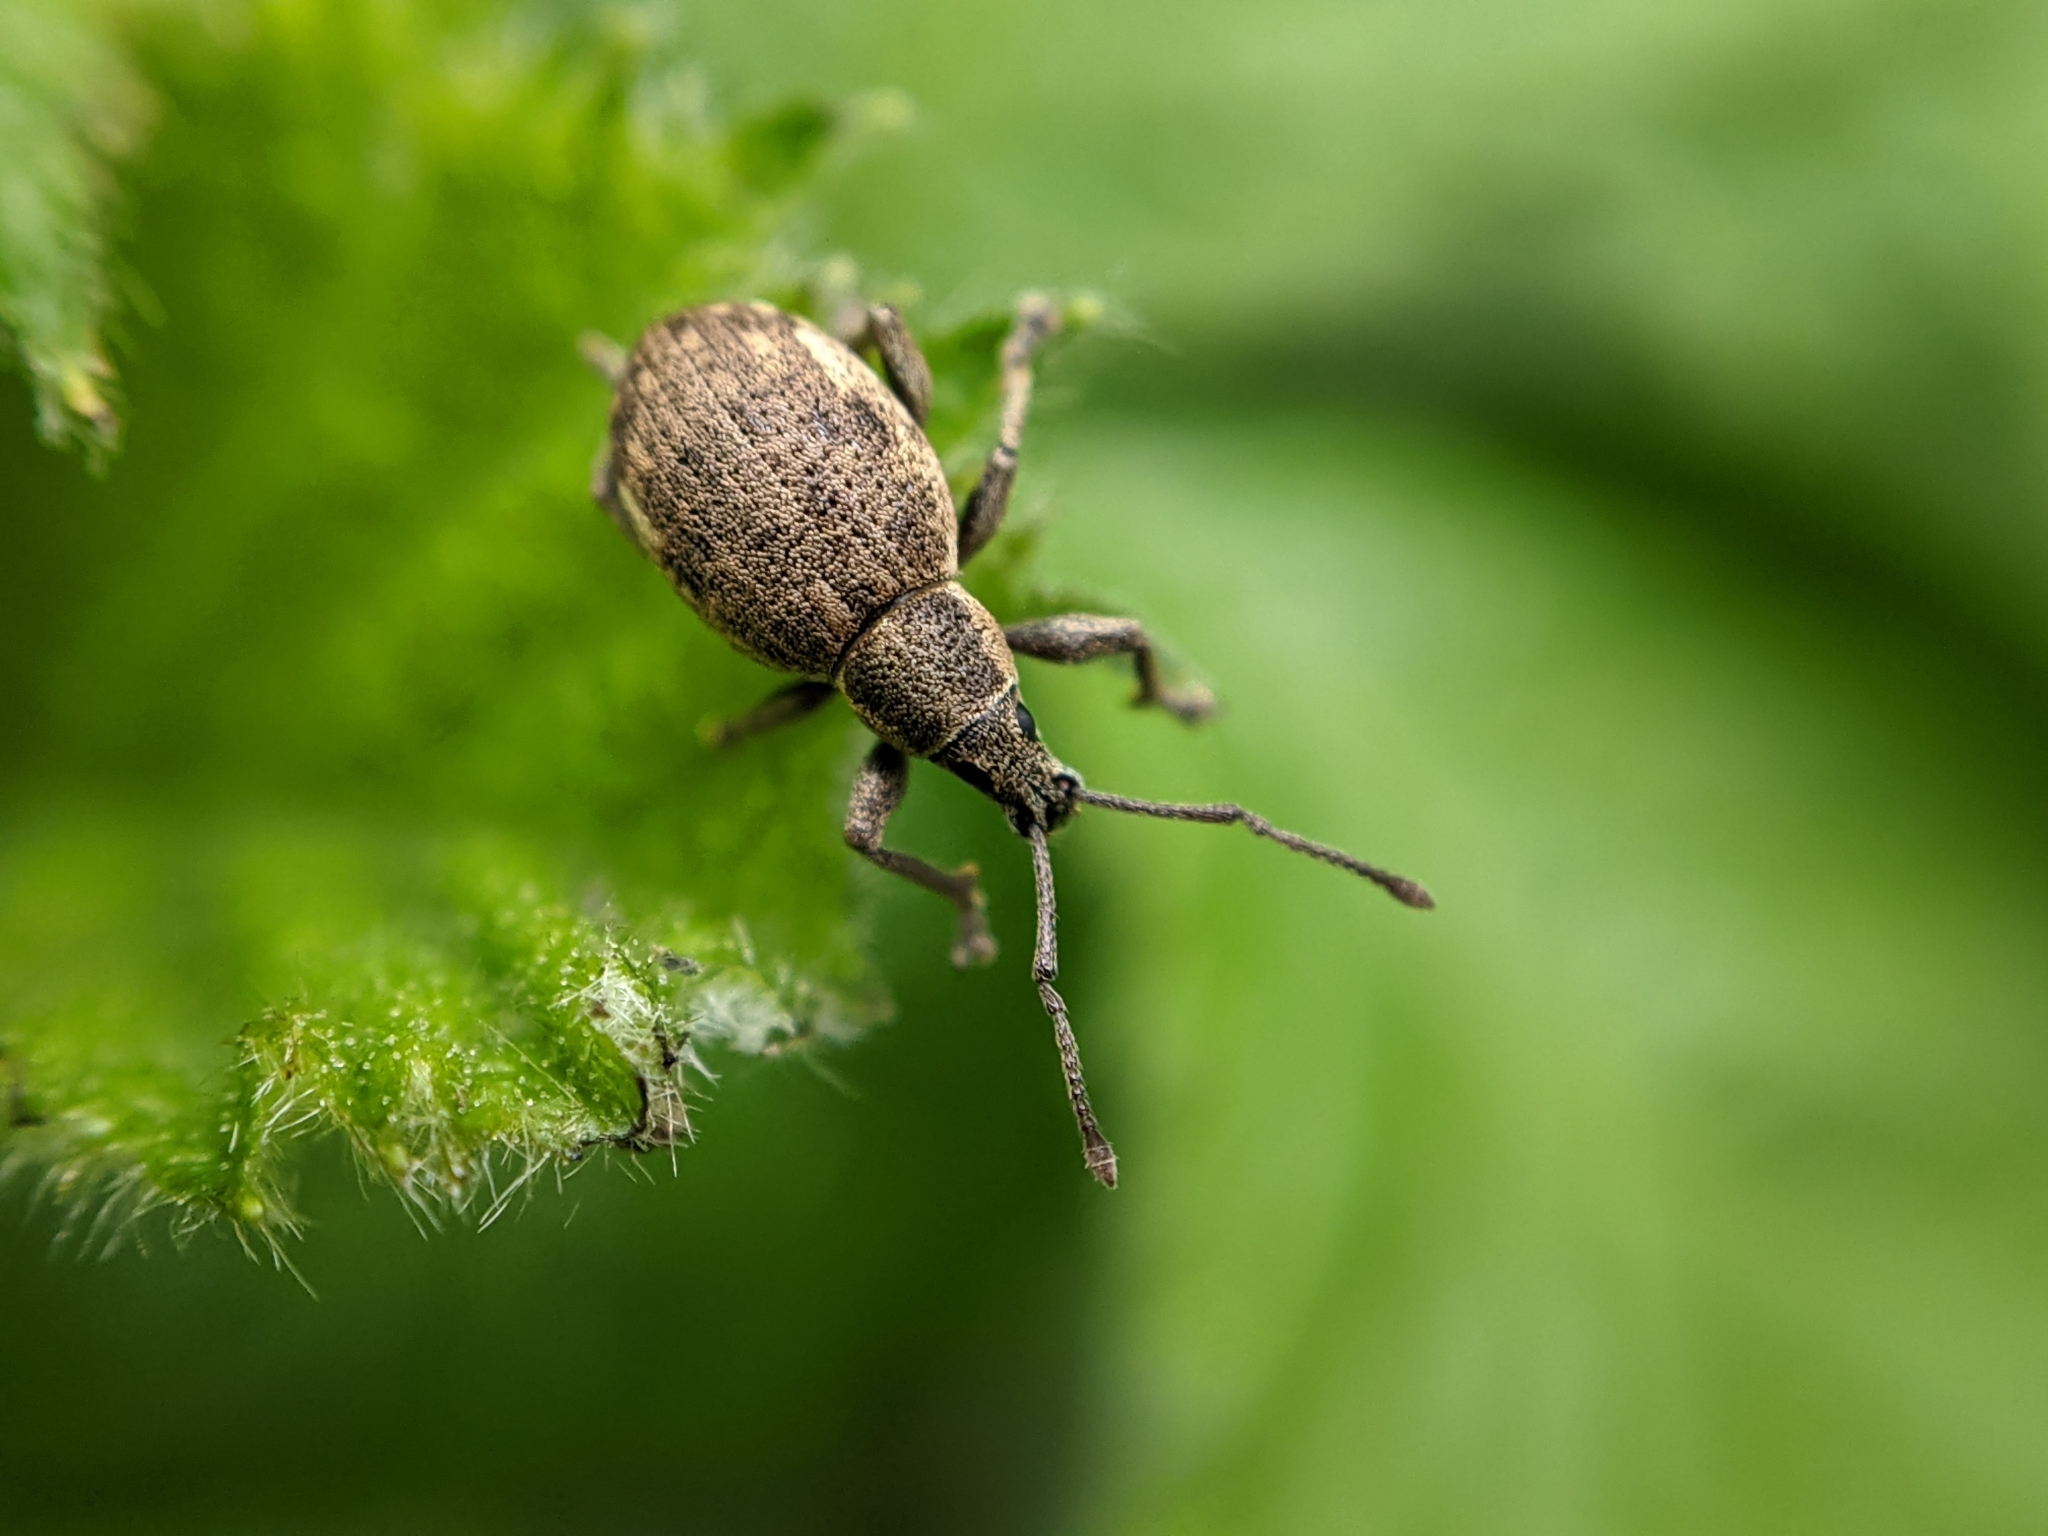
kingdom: Animalia
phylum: Arthropoda
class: Insecta
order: Coleoptera
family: Curculionidae
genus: Peritelus
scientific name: Peritelus sphaeroides
